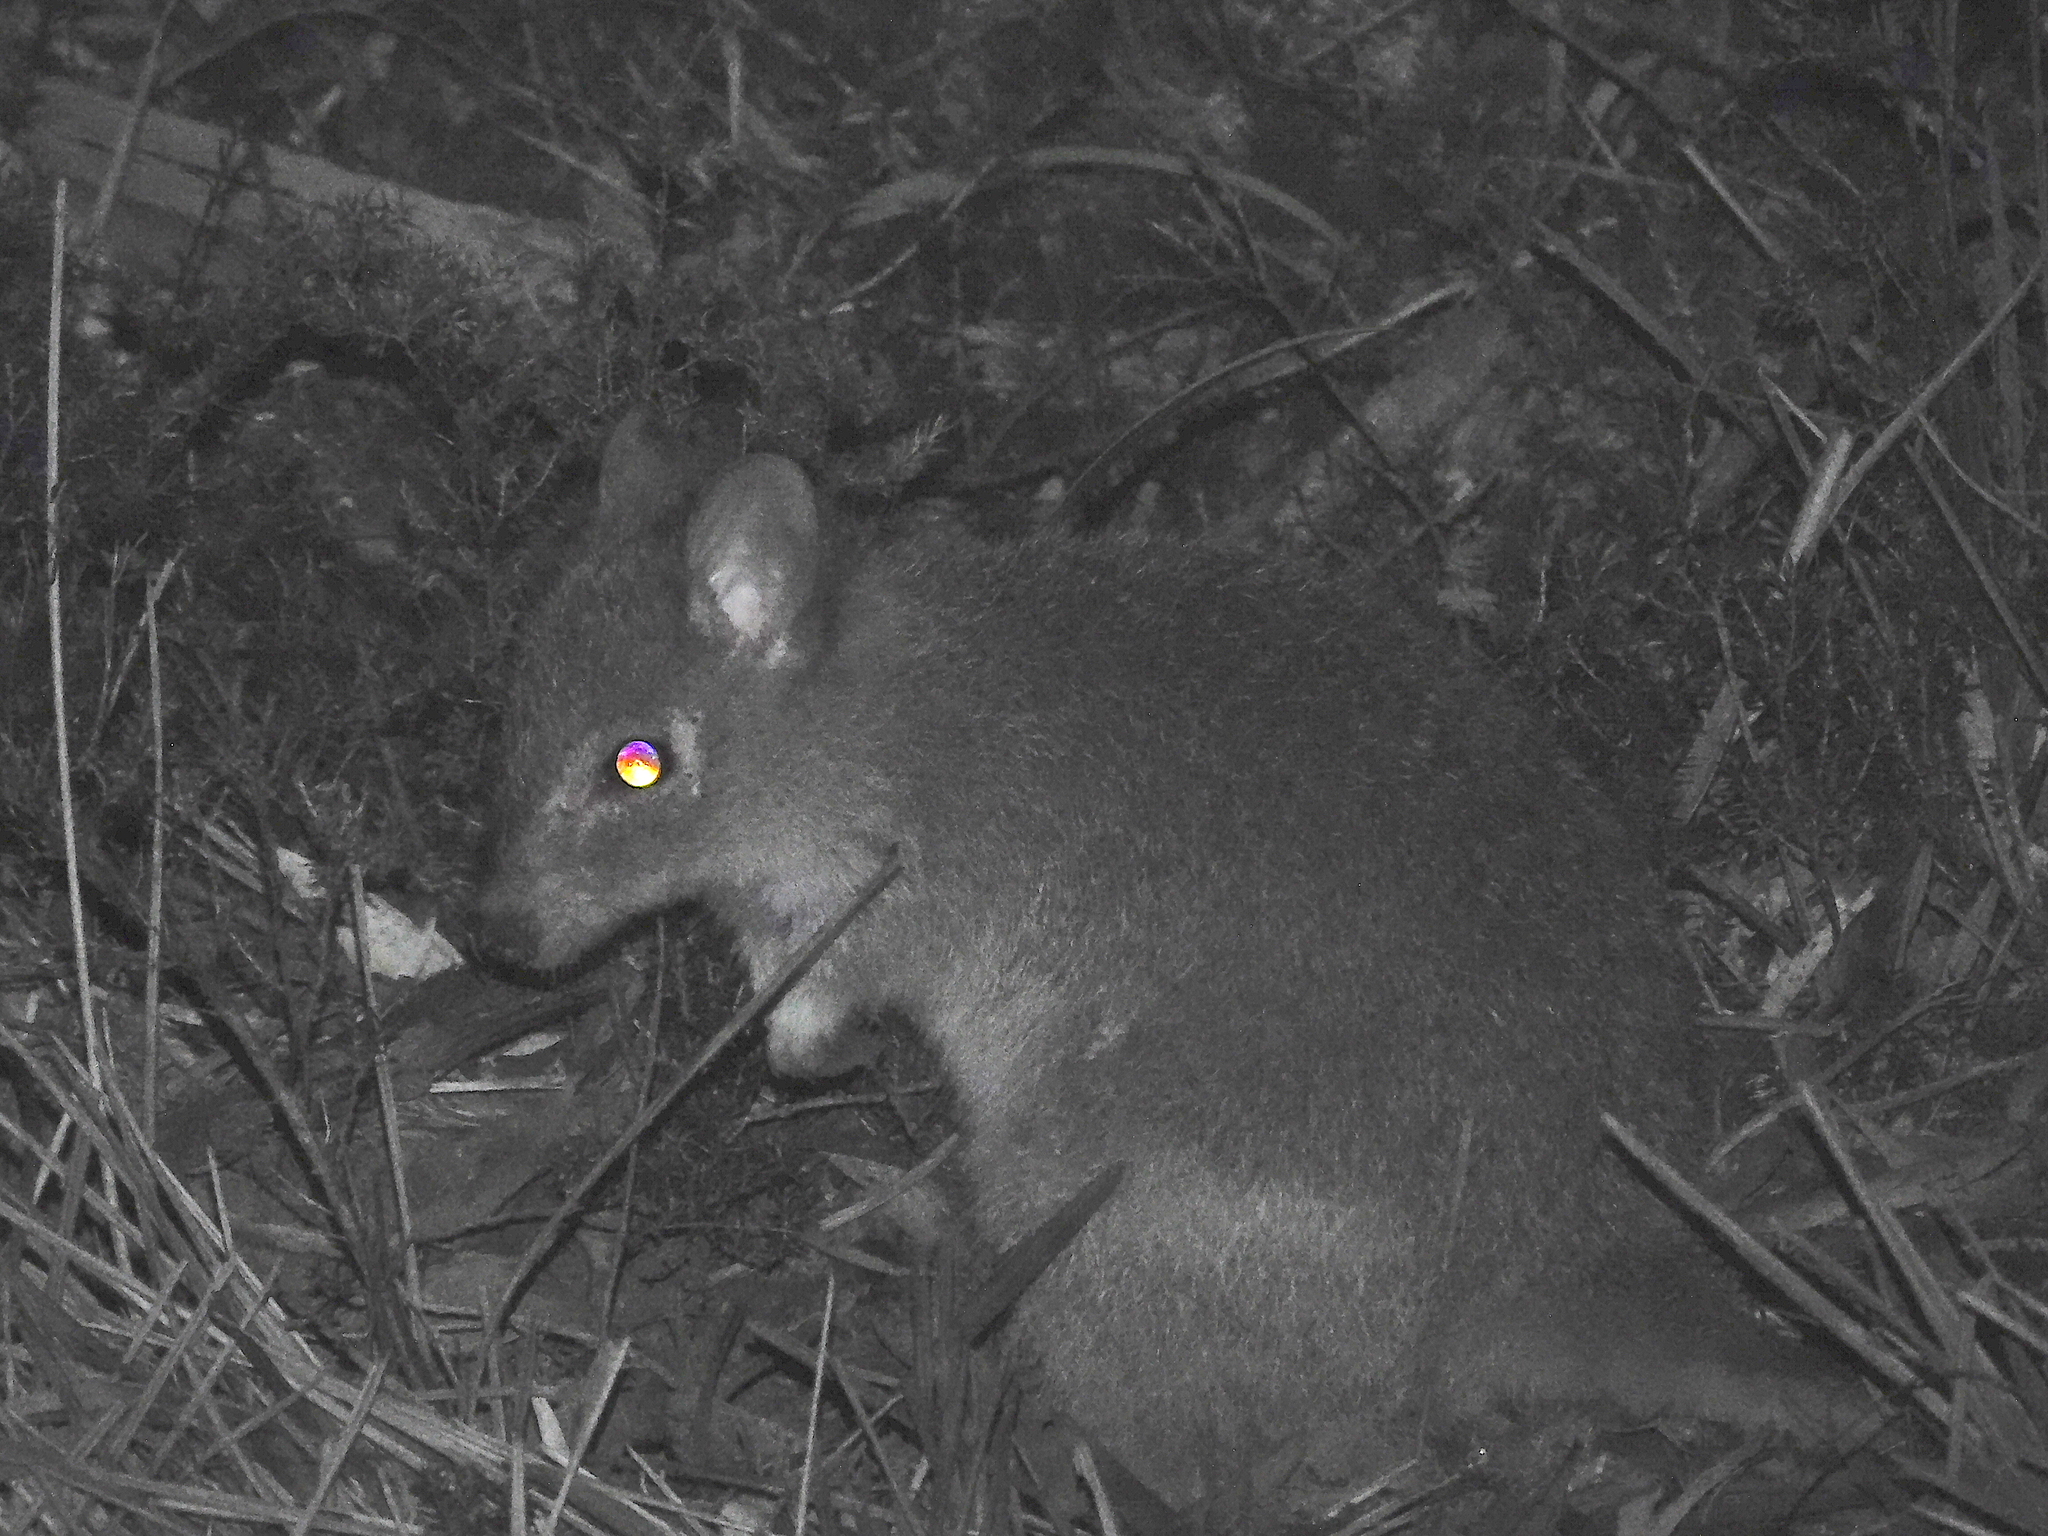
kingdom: Animalia
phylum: Chordata
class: Mammalia
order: Diprotodontia
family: Potoroidae
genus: Bettongia
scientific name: Bettongia gaimardi
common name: Eastern bettong
